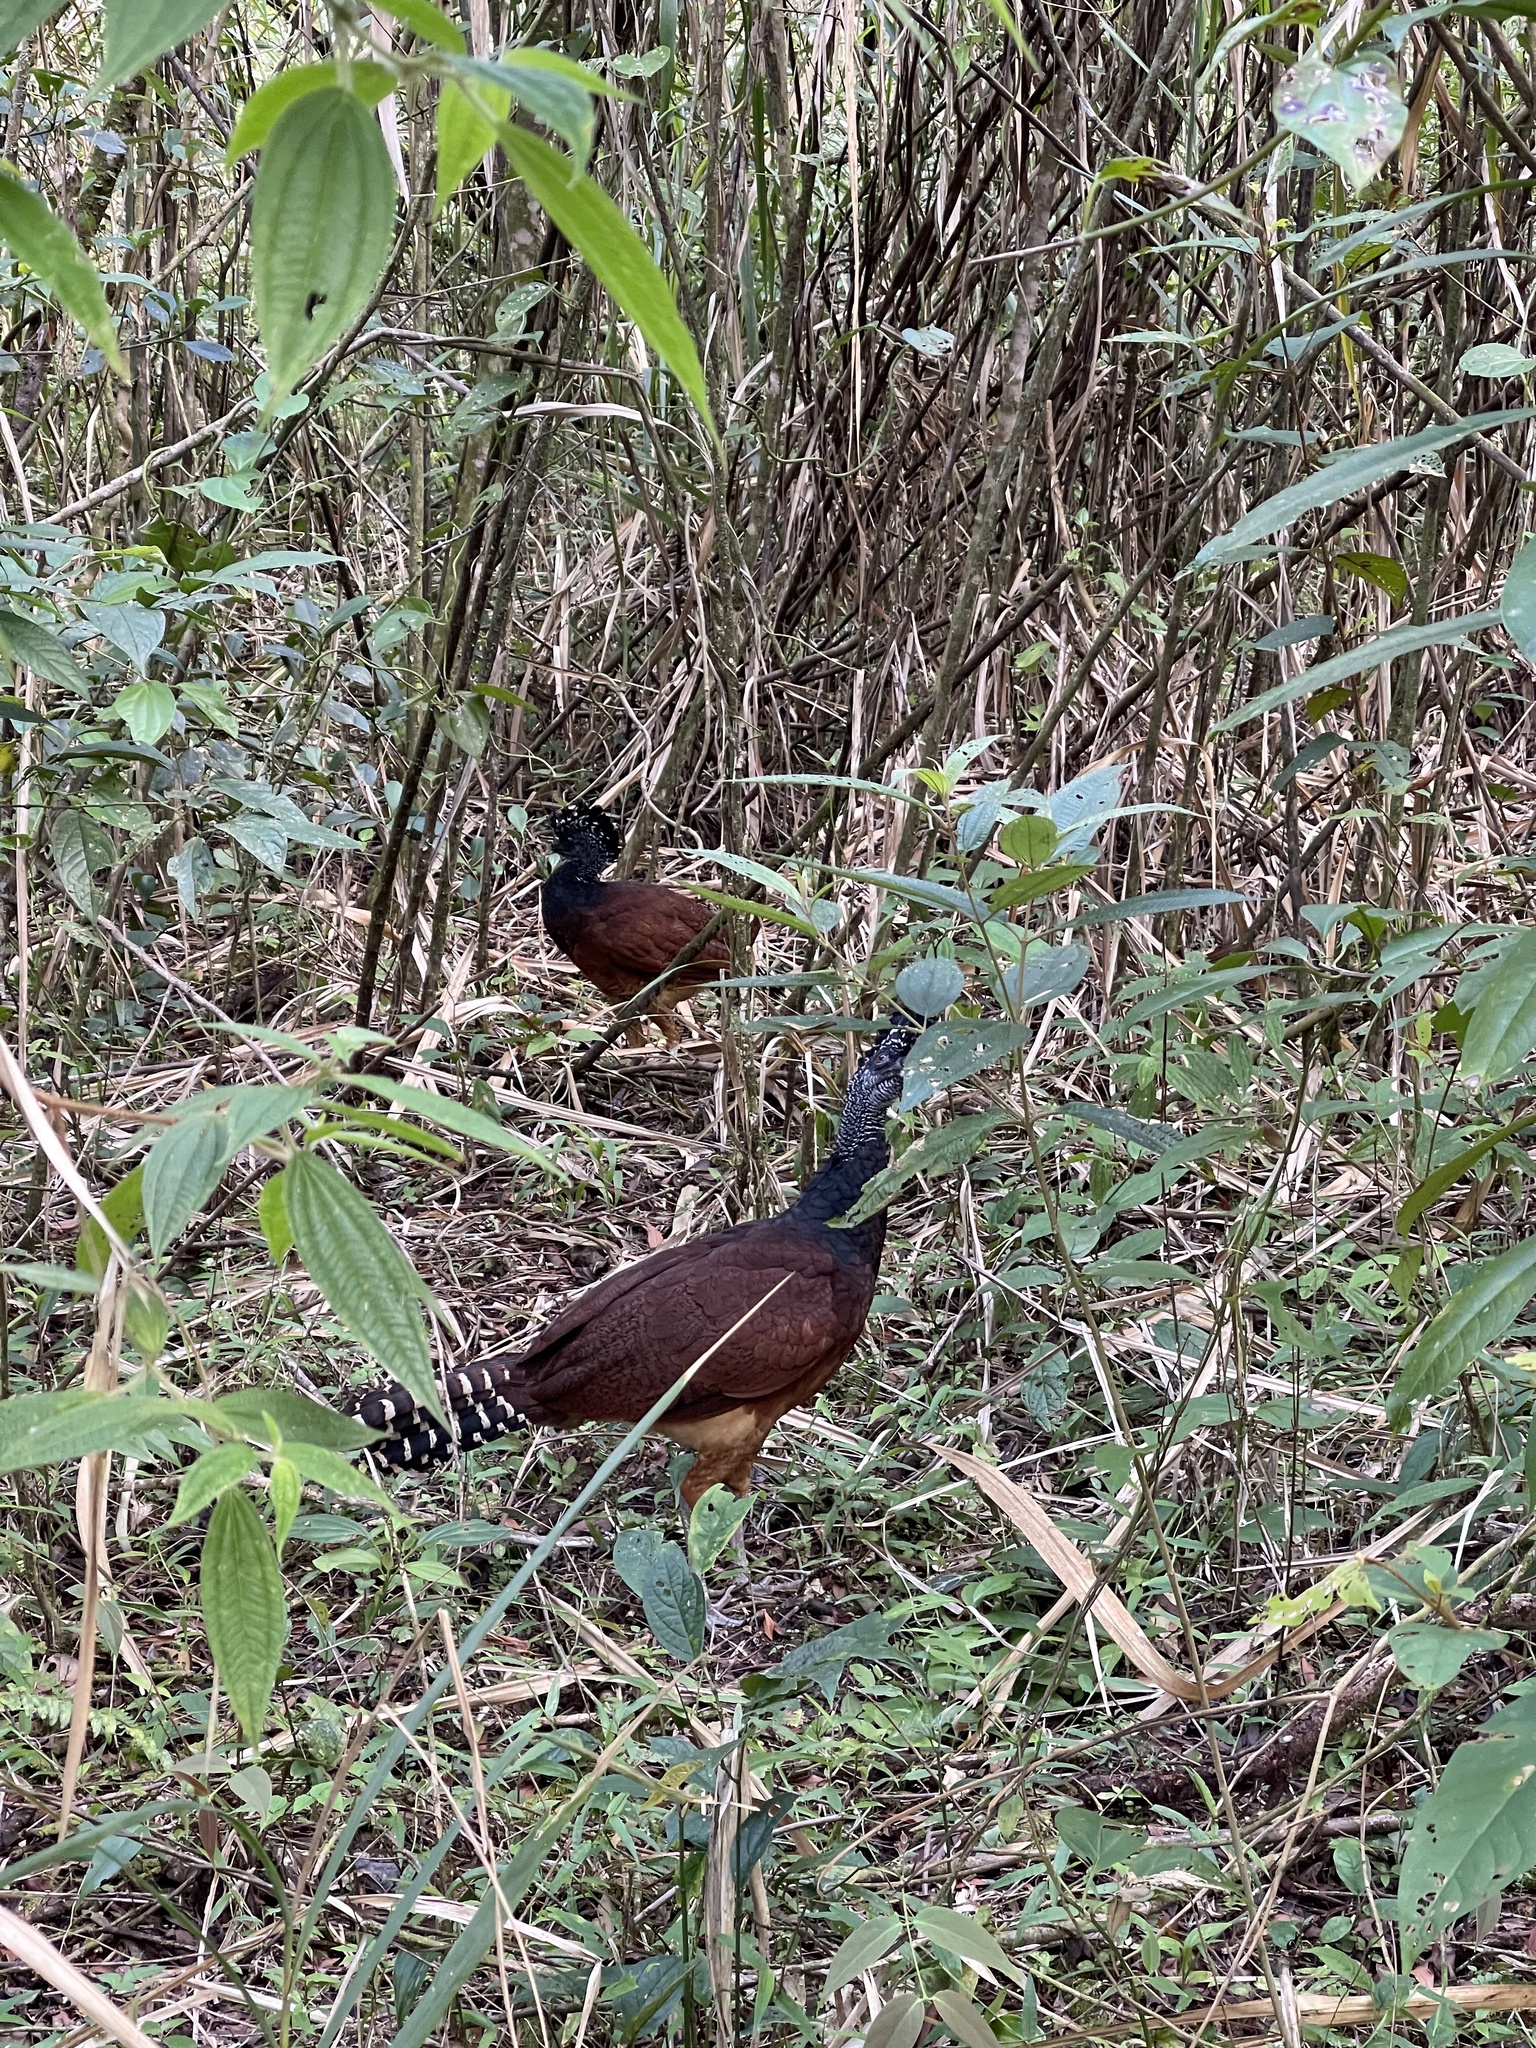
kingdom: Animalia
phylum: Chordata
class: Aves
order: Galliformes
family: Cracidae
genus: Crax
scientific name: Crax rubra
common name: Great curassow
